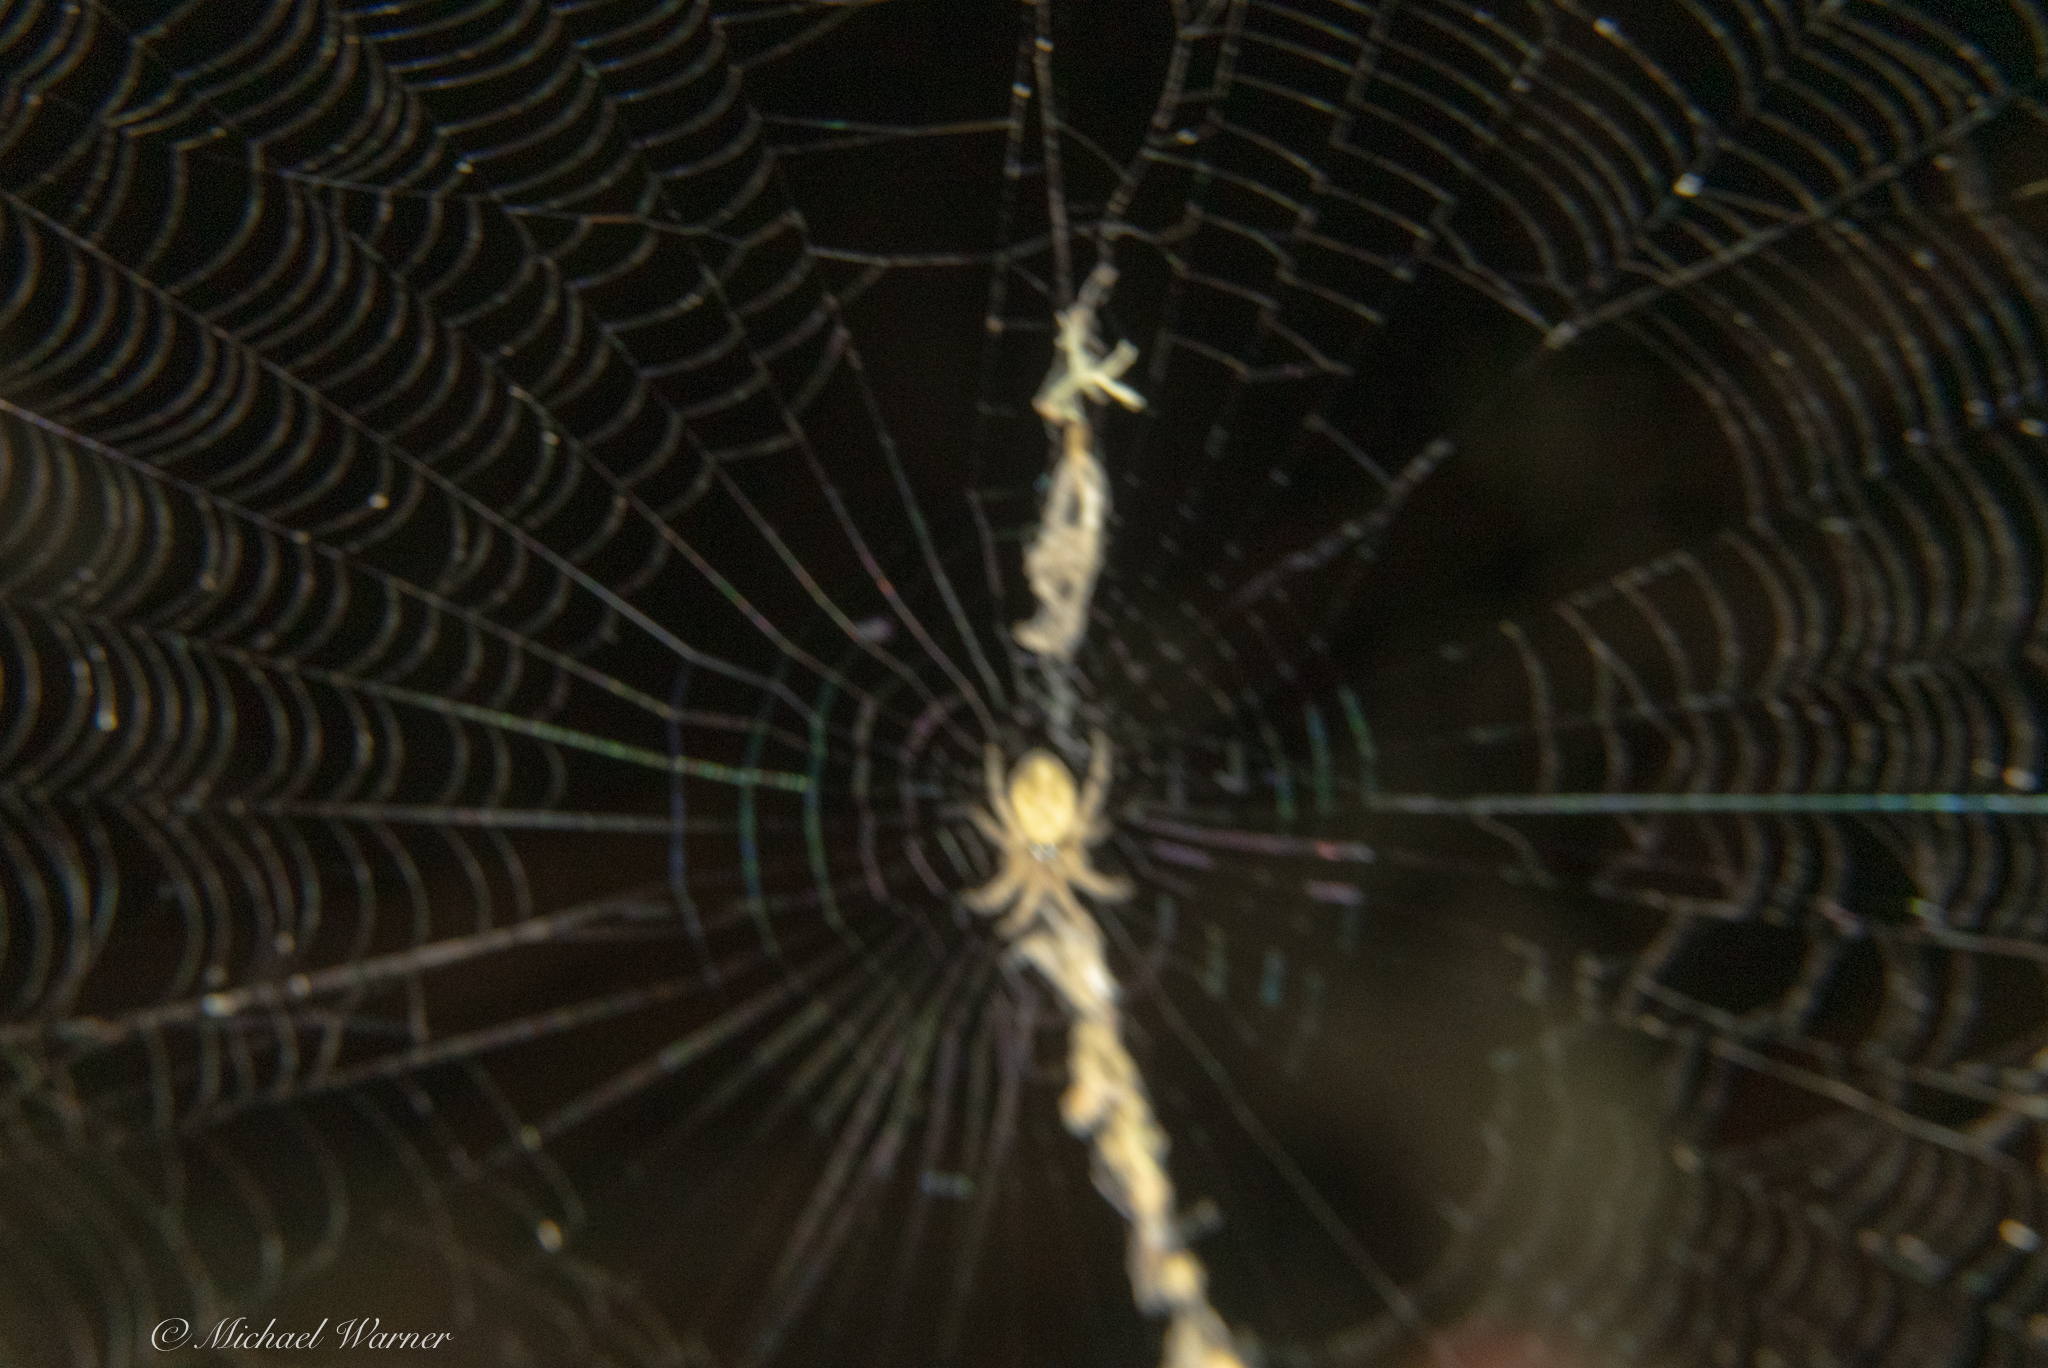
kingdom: Animalia
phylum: Arthropoda
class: Arachnida
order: Araneae
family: Araneidae
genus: Cyclosa
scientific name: Cyclosa conica
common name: Conical trashline orbweaver
